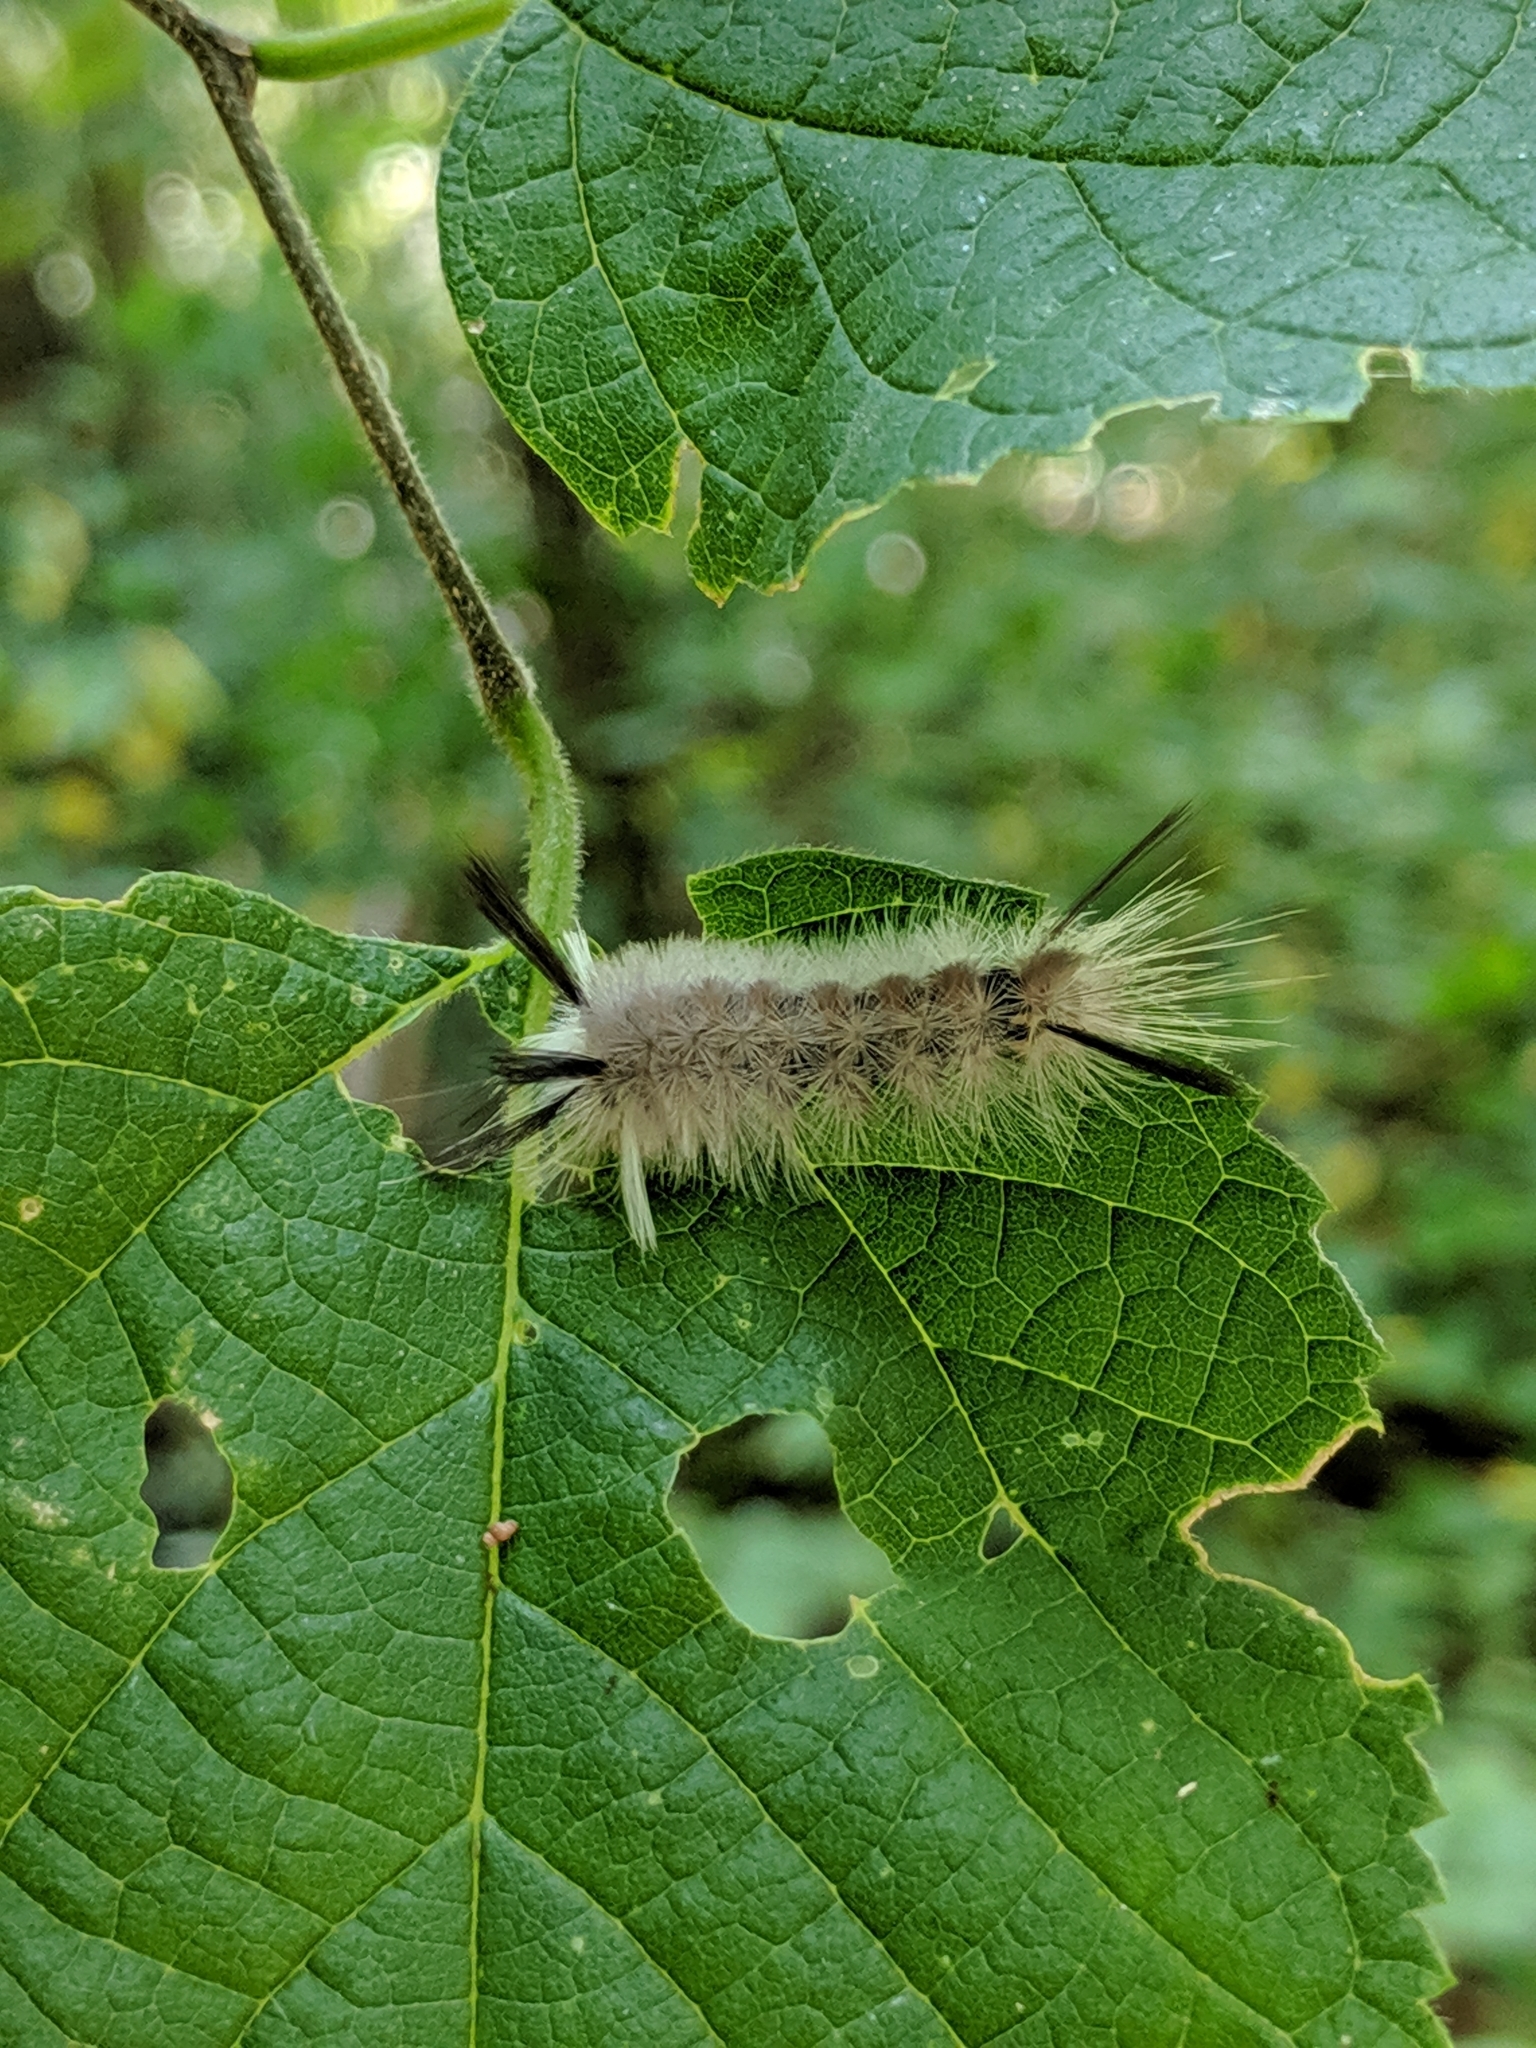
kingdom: Animalia
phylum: Arthropoda
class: Insecta
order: Lepidoptera
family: Erebidae
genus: Halysidota
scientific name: Halysidota tessellaris
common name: Banded tussock moth
